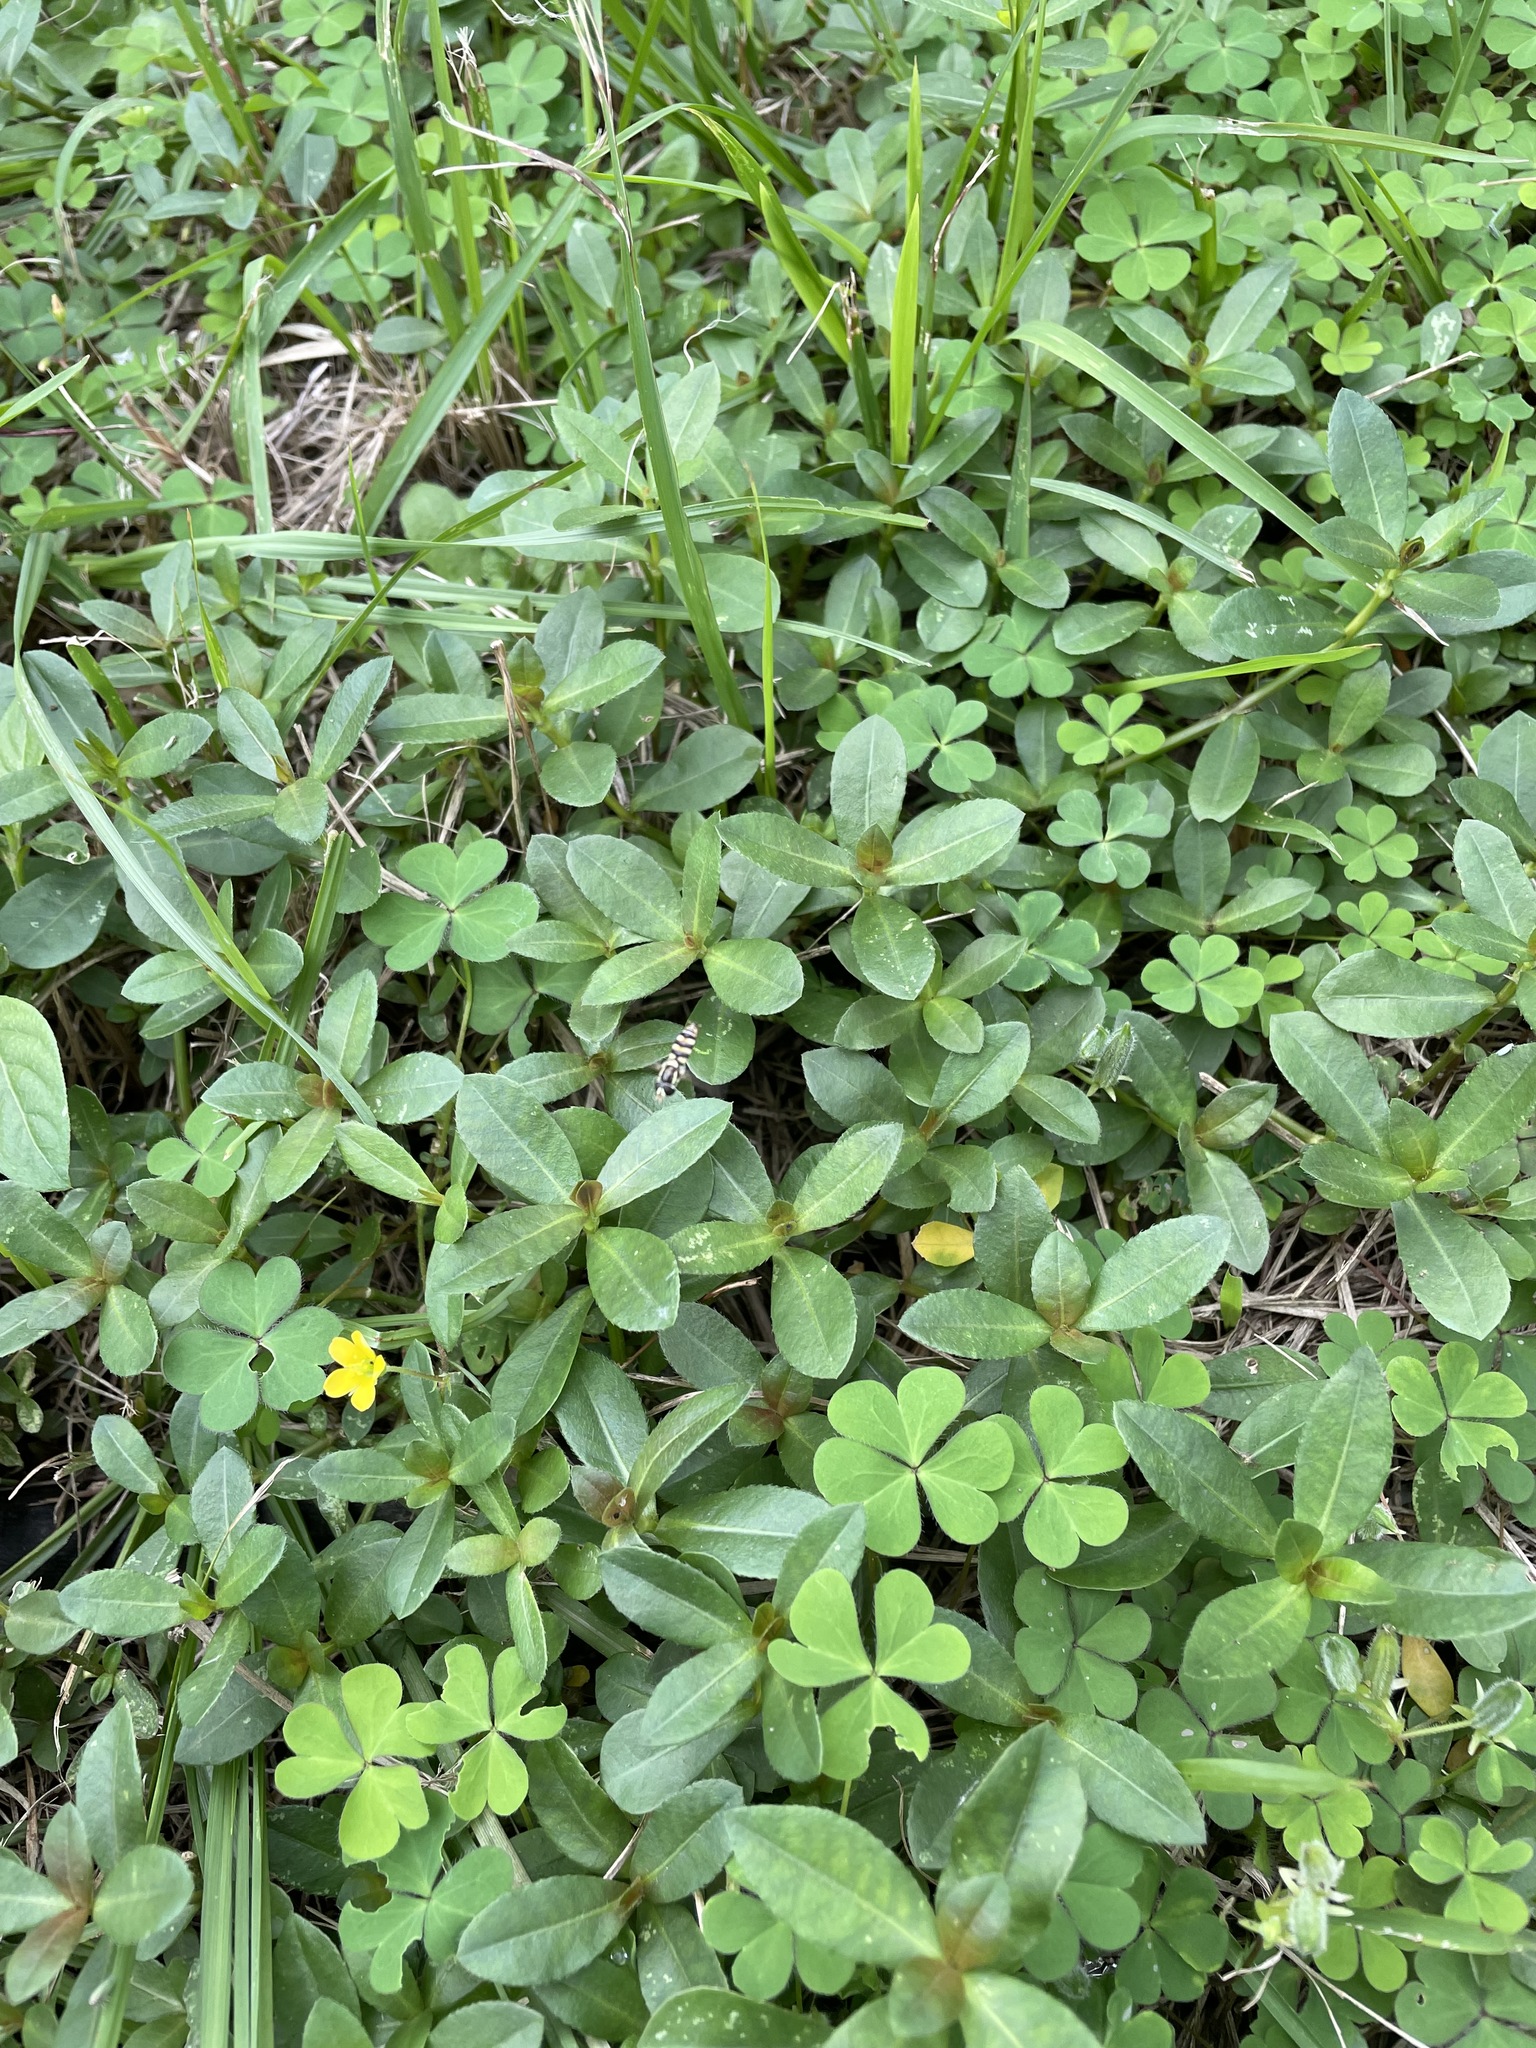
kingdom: Plantae
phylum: Tracheophyta
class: Magnoliopsida
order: Caryophyllales
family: Amaranthaceae
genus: Alternanthera
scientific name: Alternanthera philoxeroides
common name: Alligatorweed
